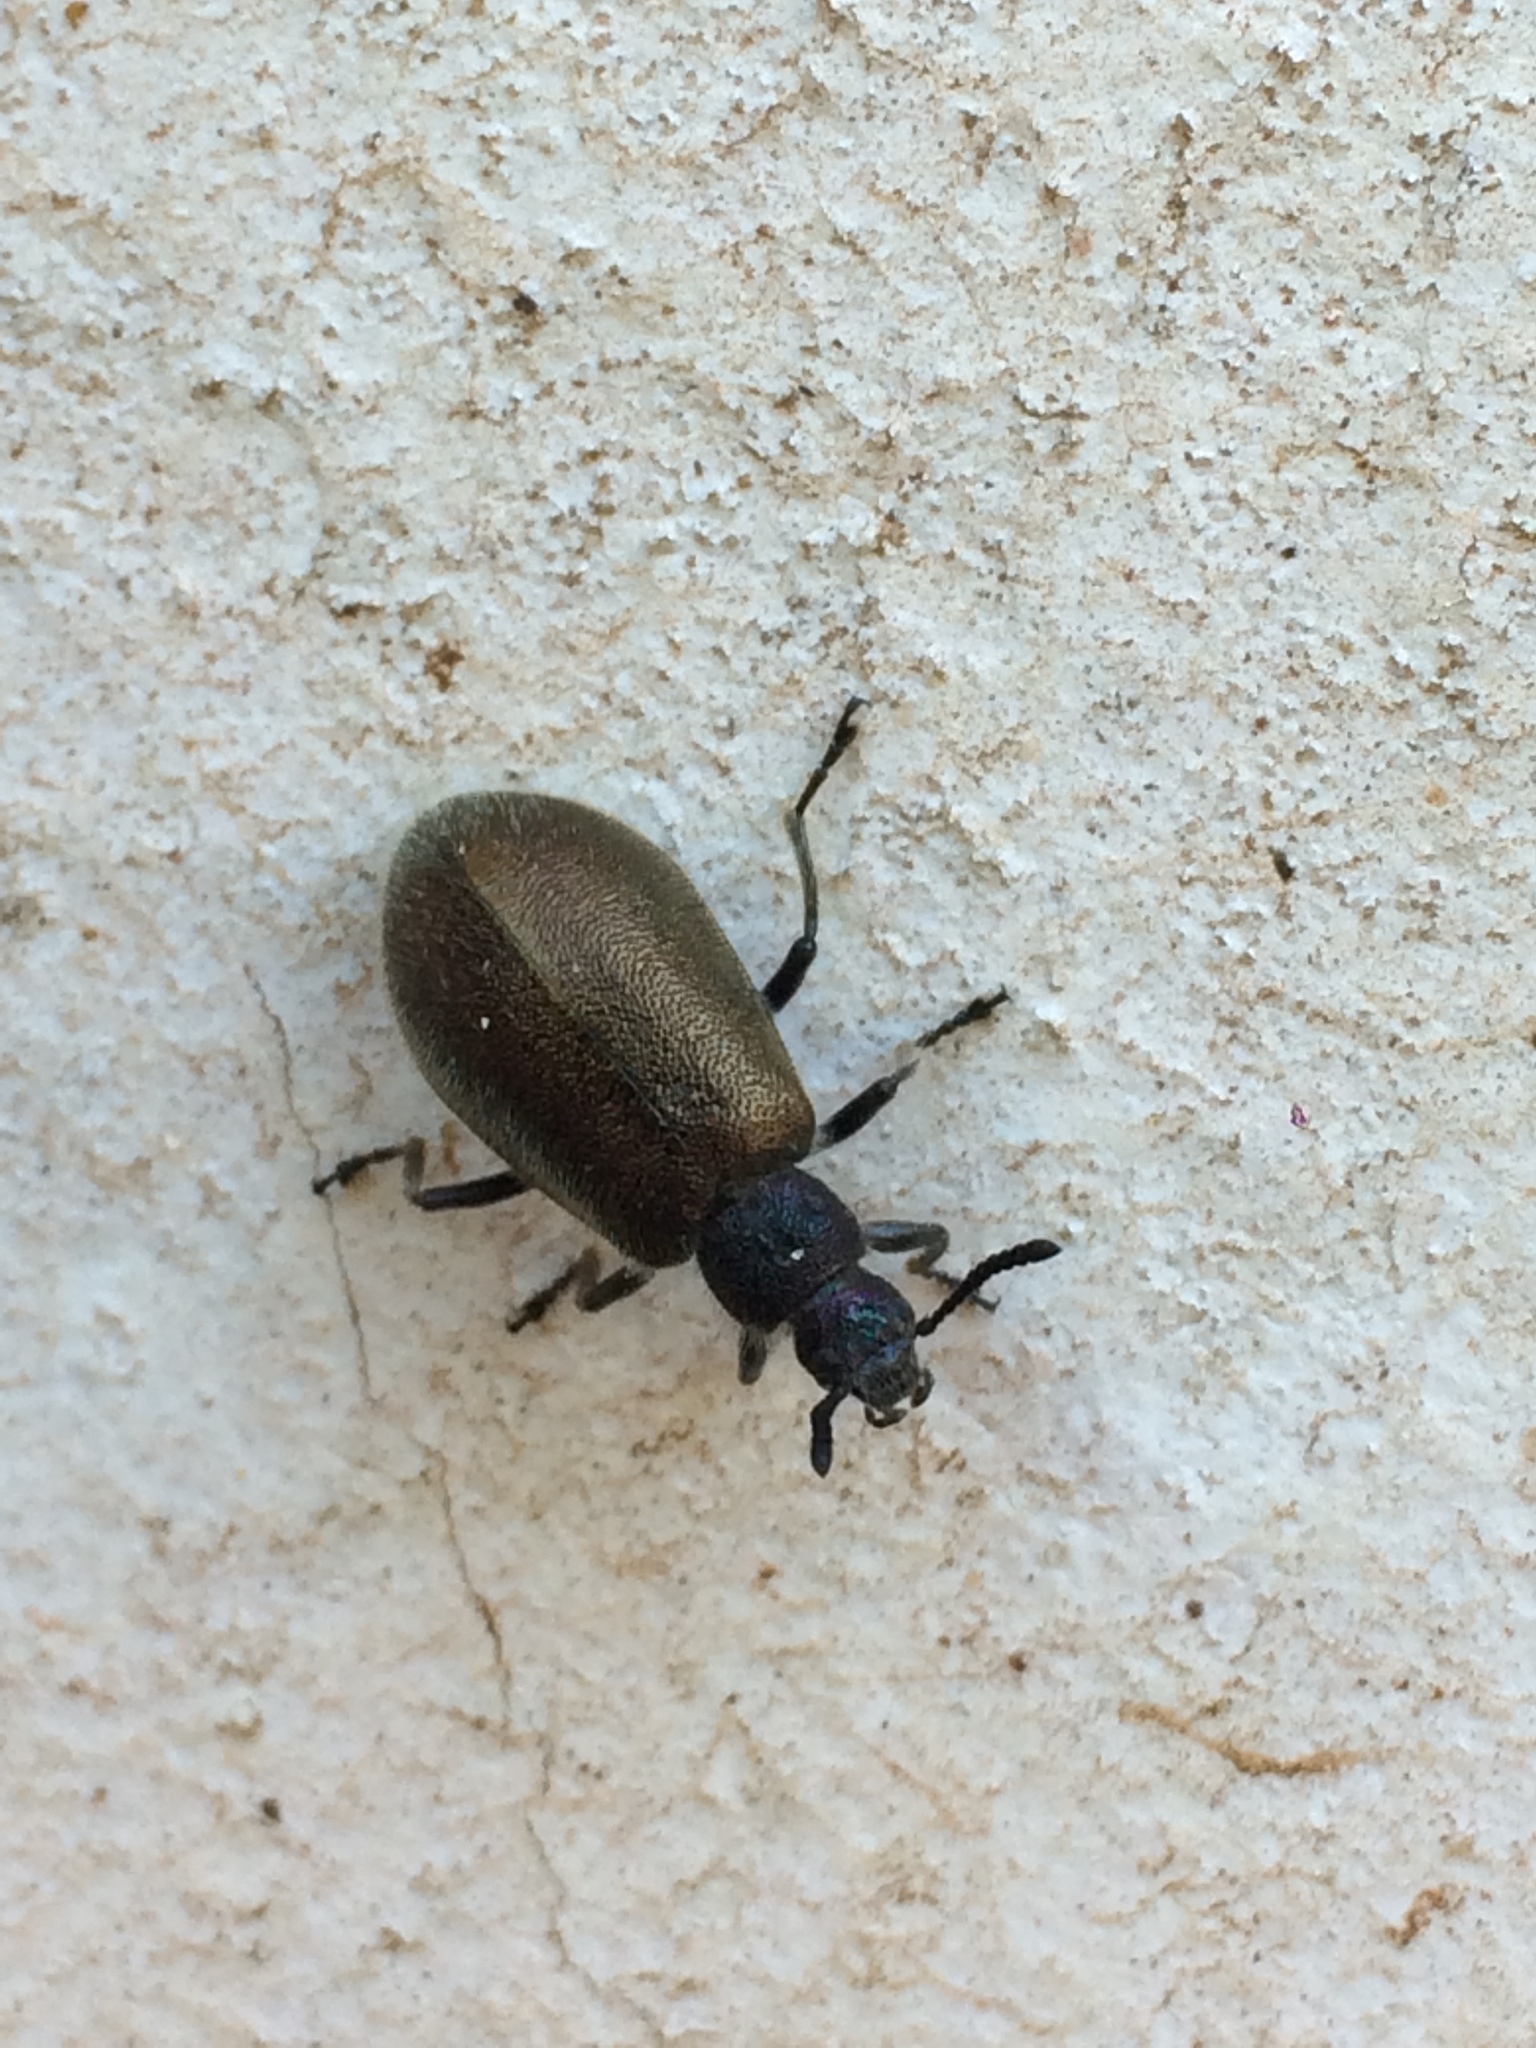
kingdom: Animalia
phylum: Arthropoda
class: Insecta
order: Coleoptera
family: Tenebrionidae
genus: Lagria
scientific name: Lagria villosa
